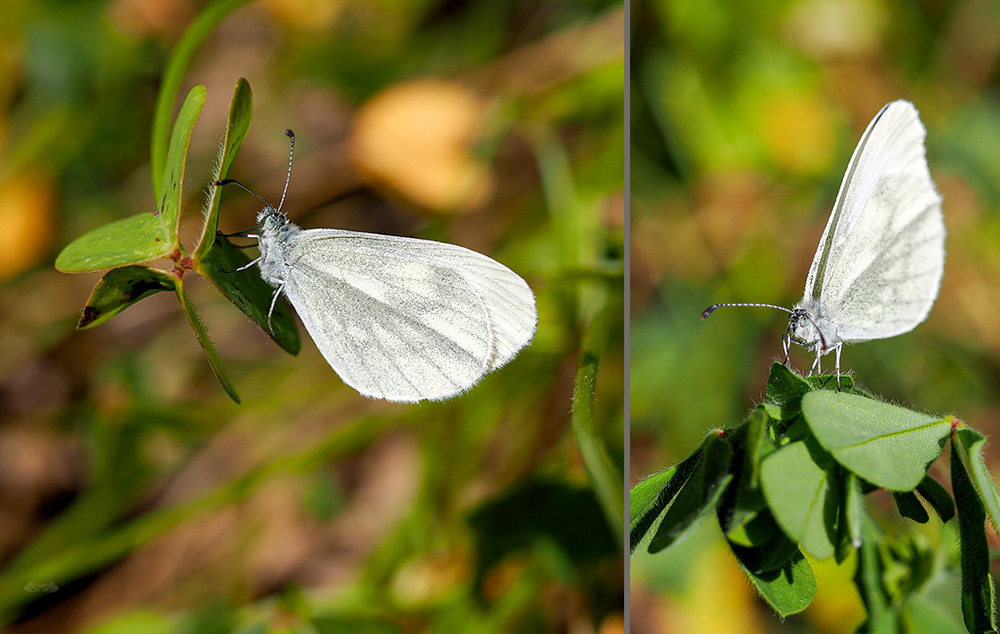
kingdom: Animalia
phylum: Arthropoda
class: Insecta
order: Lepidoptera
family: Pieridae
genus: Leptidea
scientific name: Leptidea sinapis
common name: Wood white
